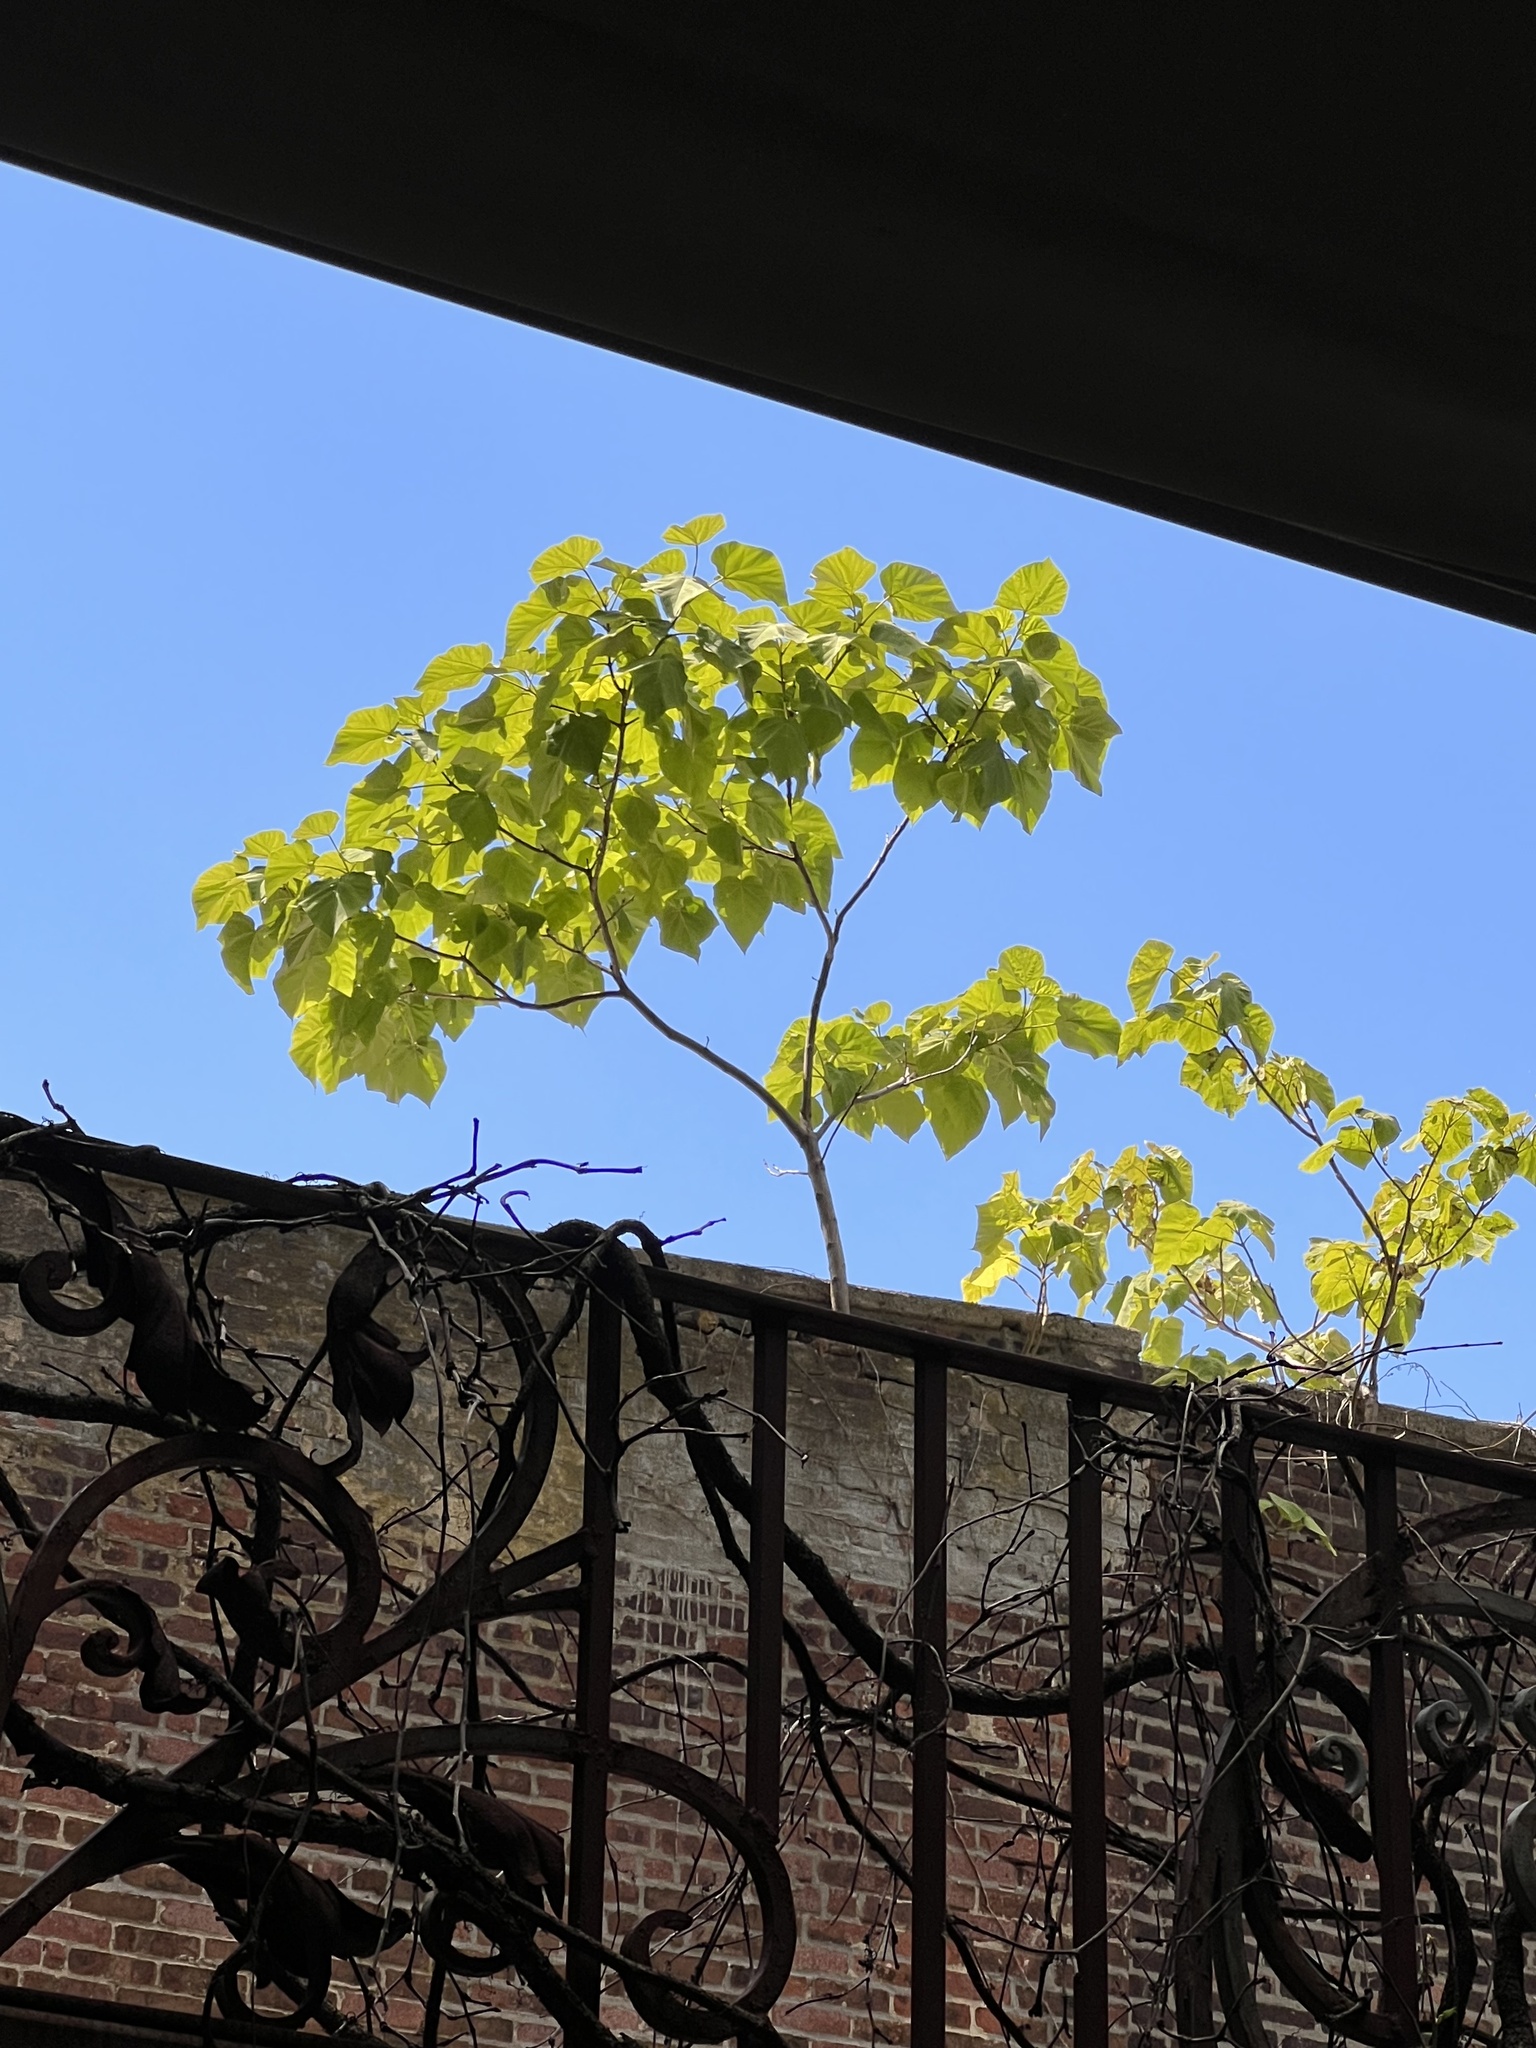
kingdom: Plantae
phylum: Tracheophyta
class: Magnoliopsida
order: Lamiales
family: Paulowniaceae
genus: Paulownia
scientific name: Paulownia tomentosa
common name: Foxglove-tree
